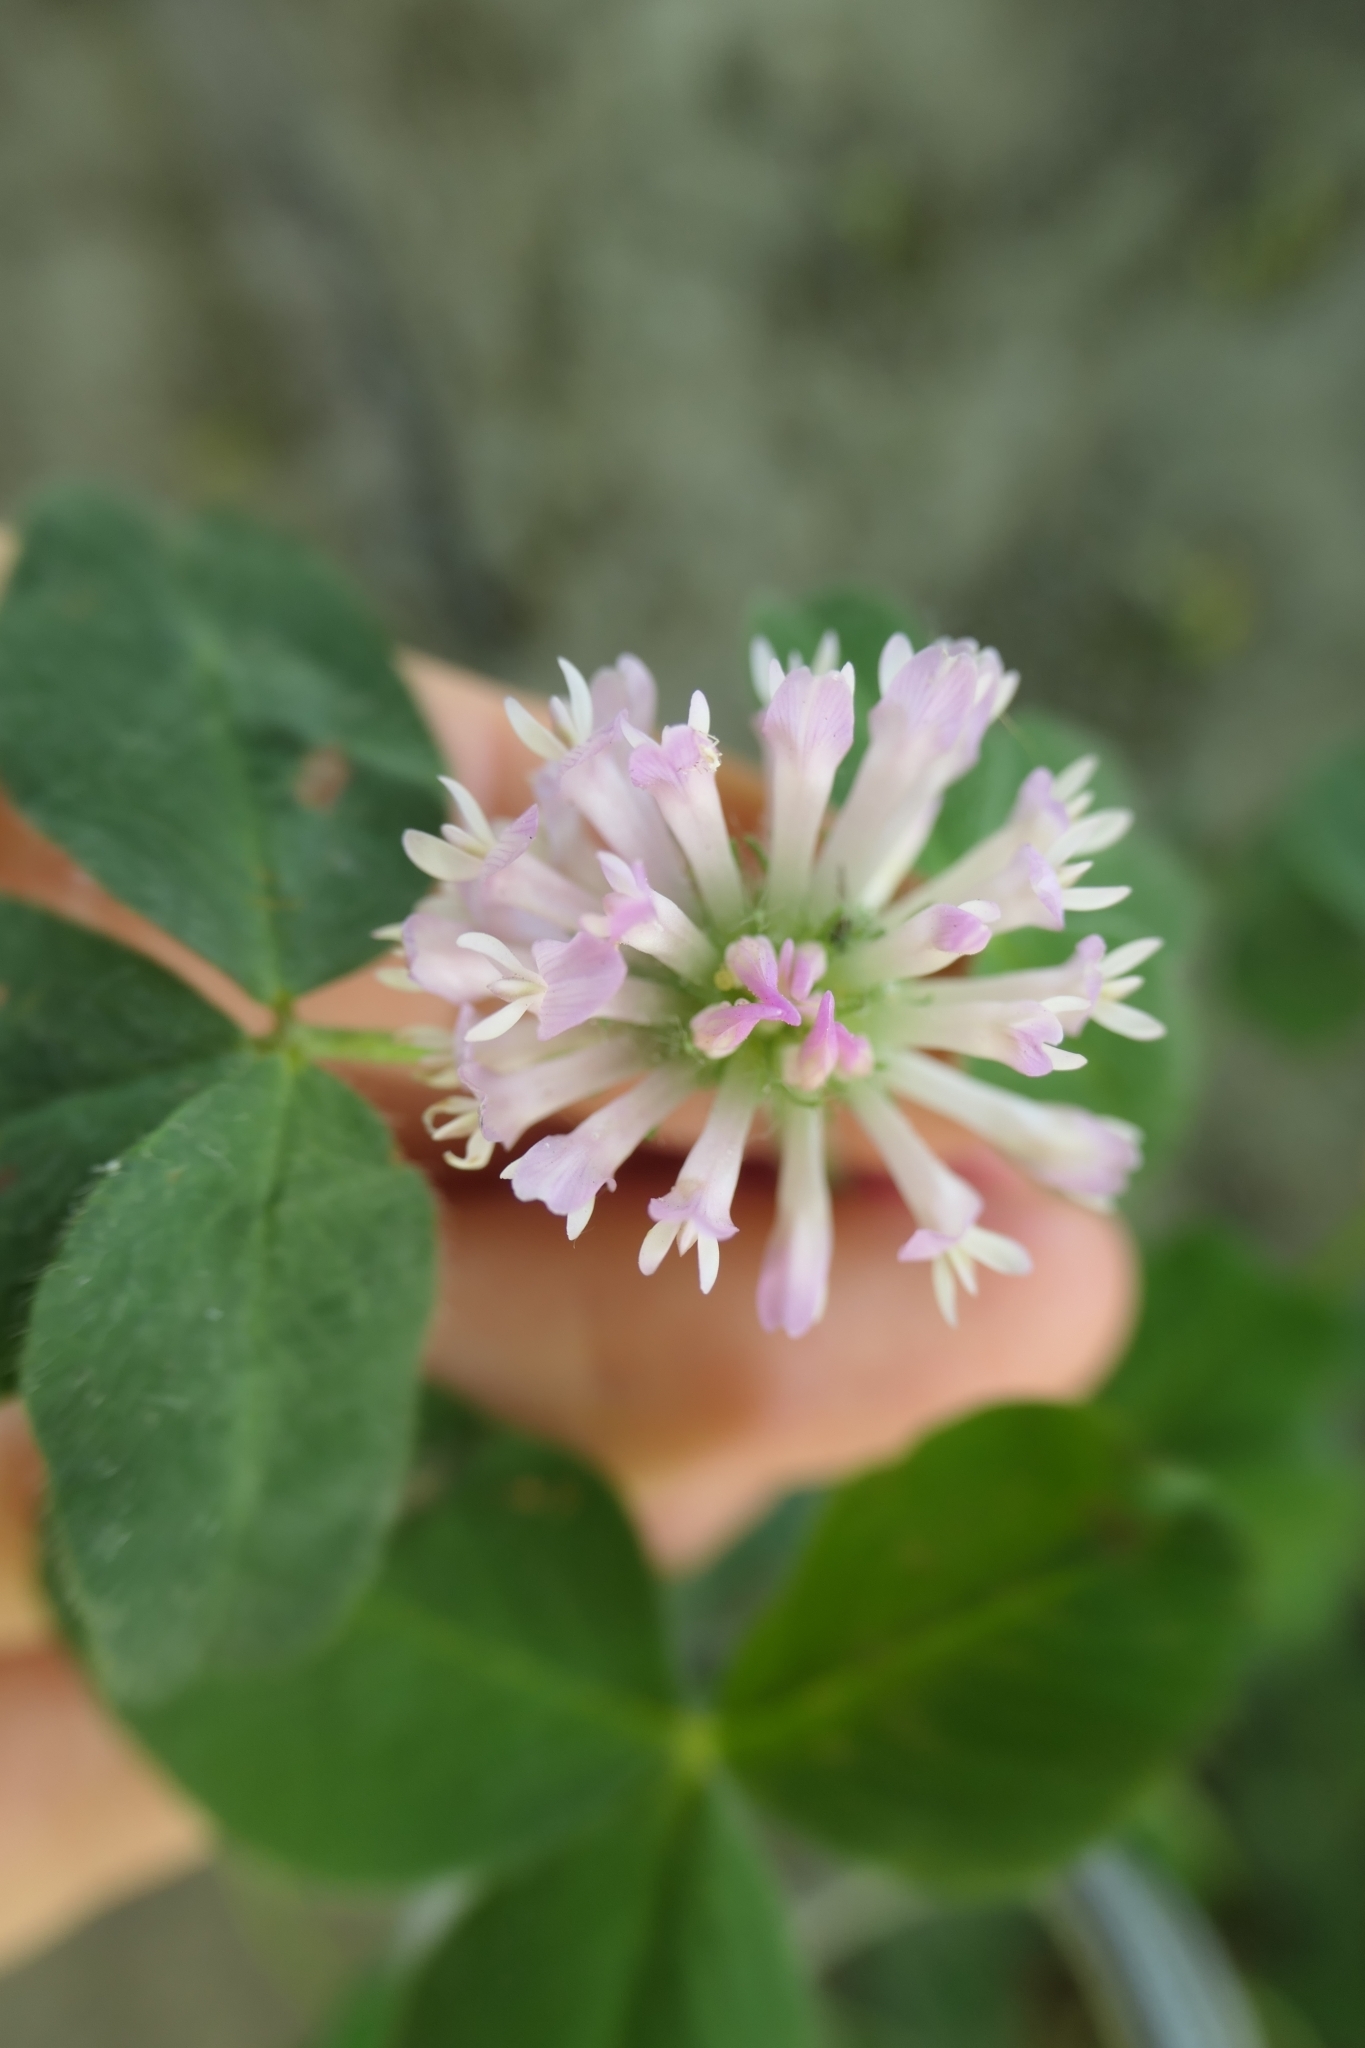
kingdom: Plantae
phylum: Tracheophyta
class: Magnoliopsida
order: Fabales
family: Fabaceae
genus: Trifolium
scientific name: Trifolium pratense
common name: Red clover
